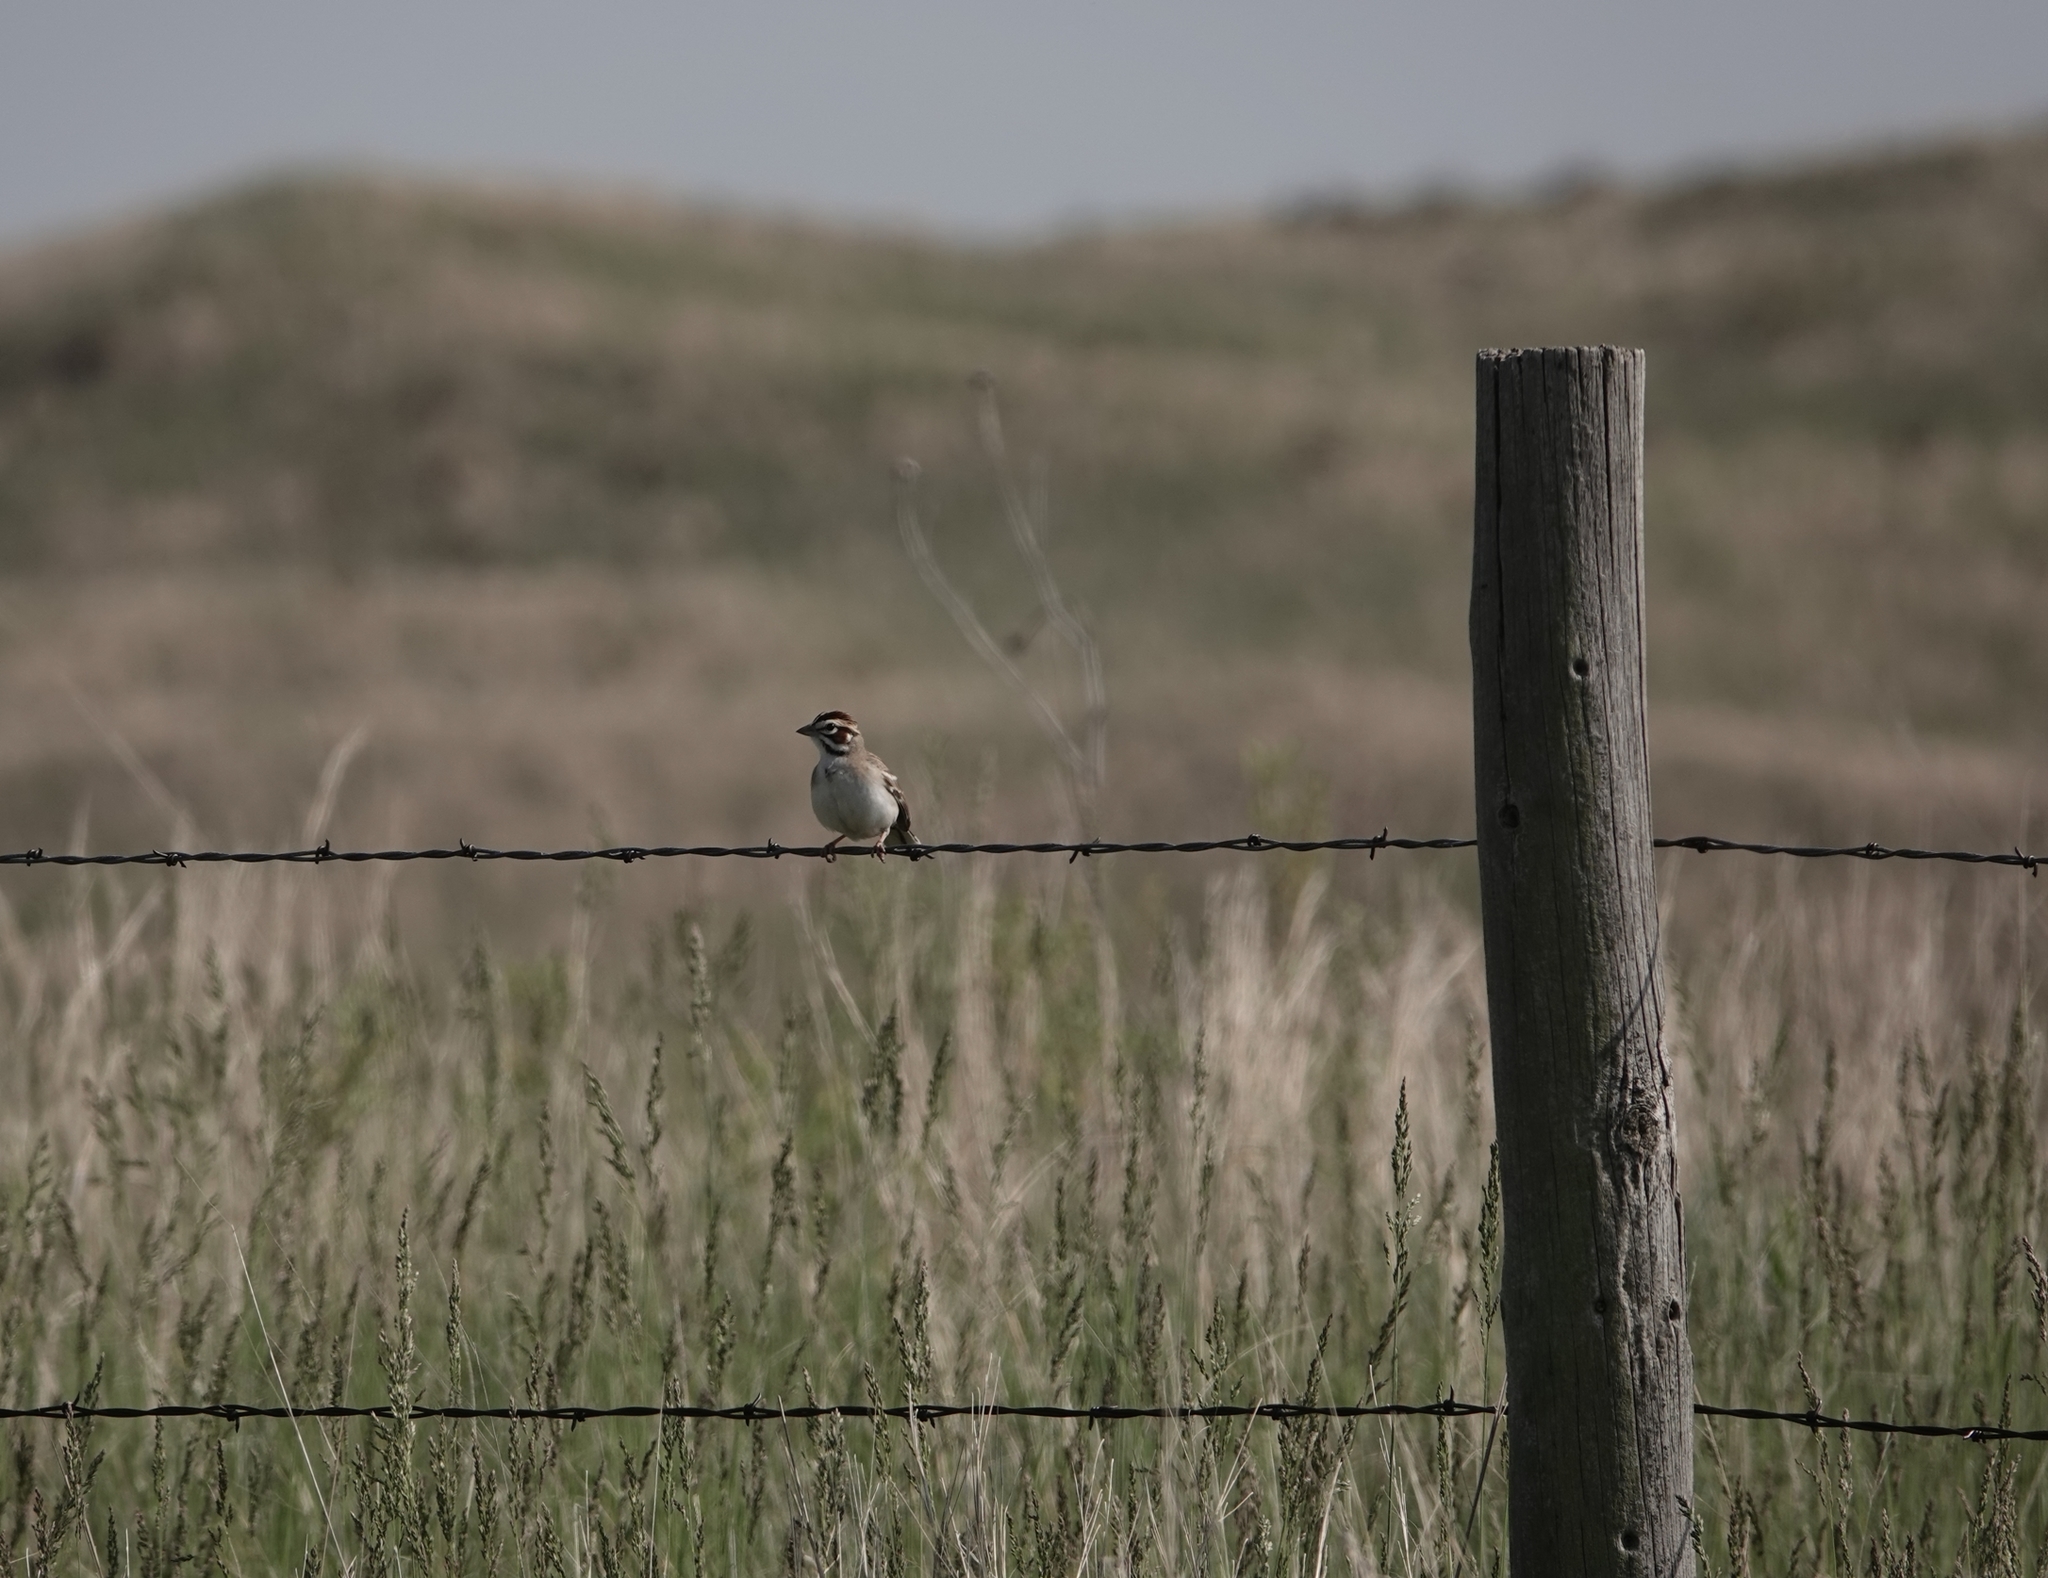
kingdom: Animalia
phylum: Chordata
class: Aves
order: Passeriformes
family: Passerellidae
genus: Chondestes
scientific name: Chondestes grammacus
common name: Lark sparrow
